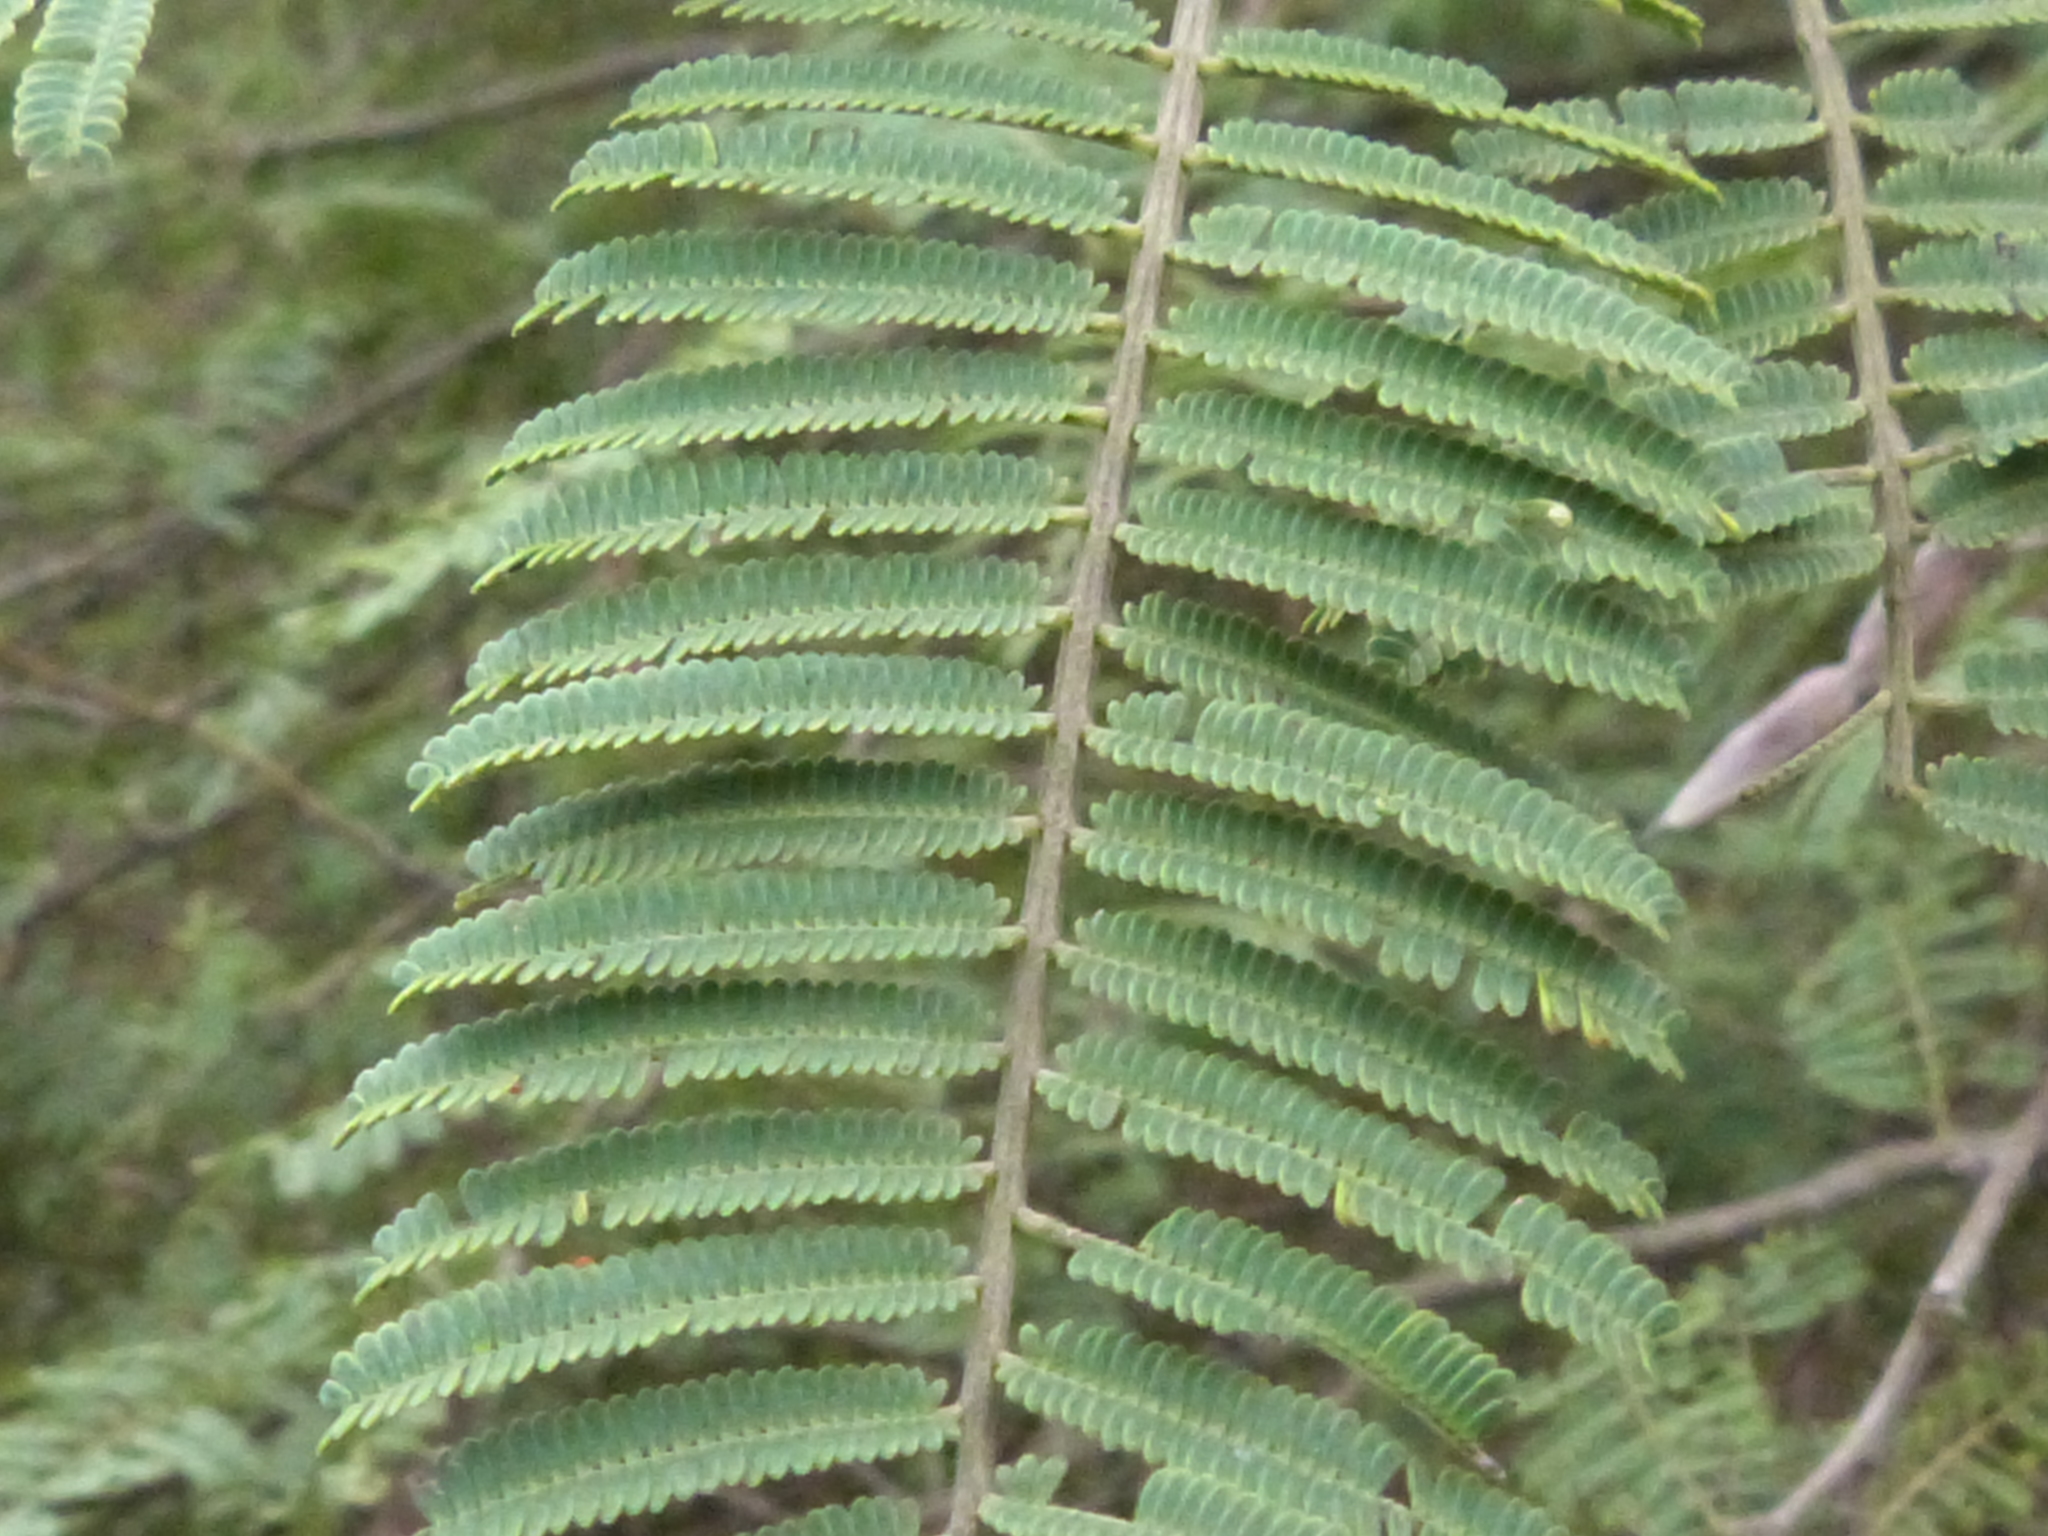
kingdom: Plantae
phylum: Tracheophyta
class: Magnoliopsida
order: Fabales
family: Fabaceae
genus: Vachellia
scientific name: Vachellia aroma
